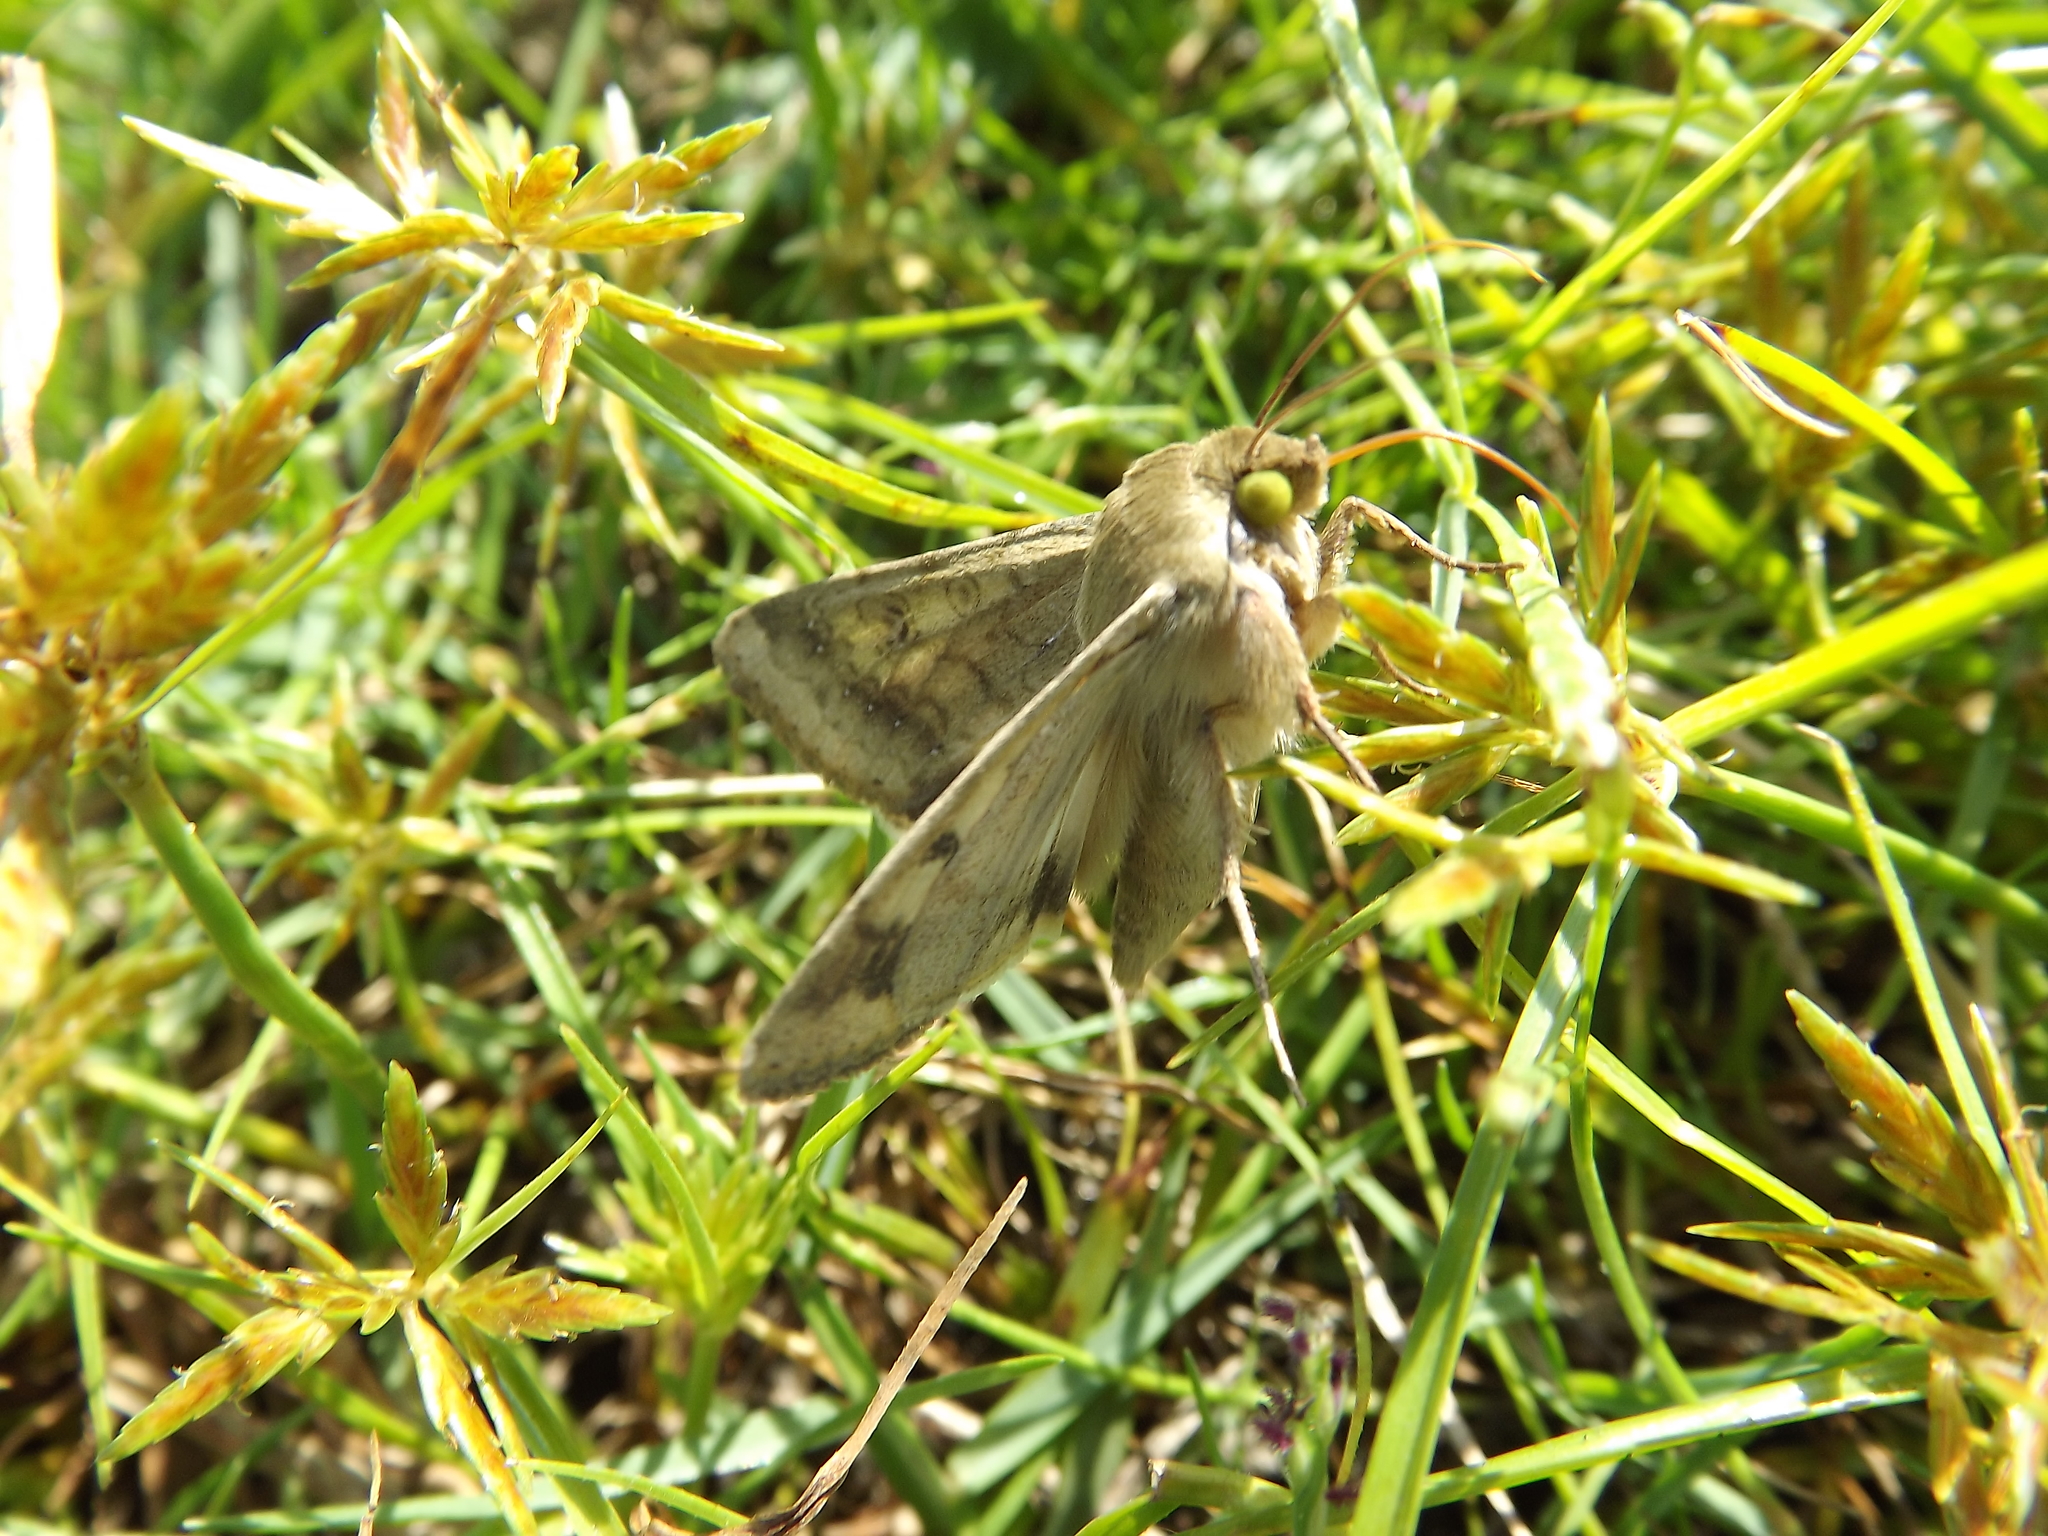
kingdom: Animalia
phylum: Arthropoda
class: Insecta
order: Lepidoptera
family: Noctuidae
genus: Helicoverpa
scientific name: Helicoverpa zea
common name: Bollworm
